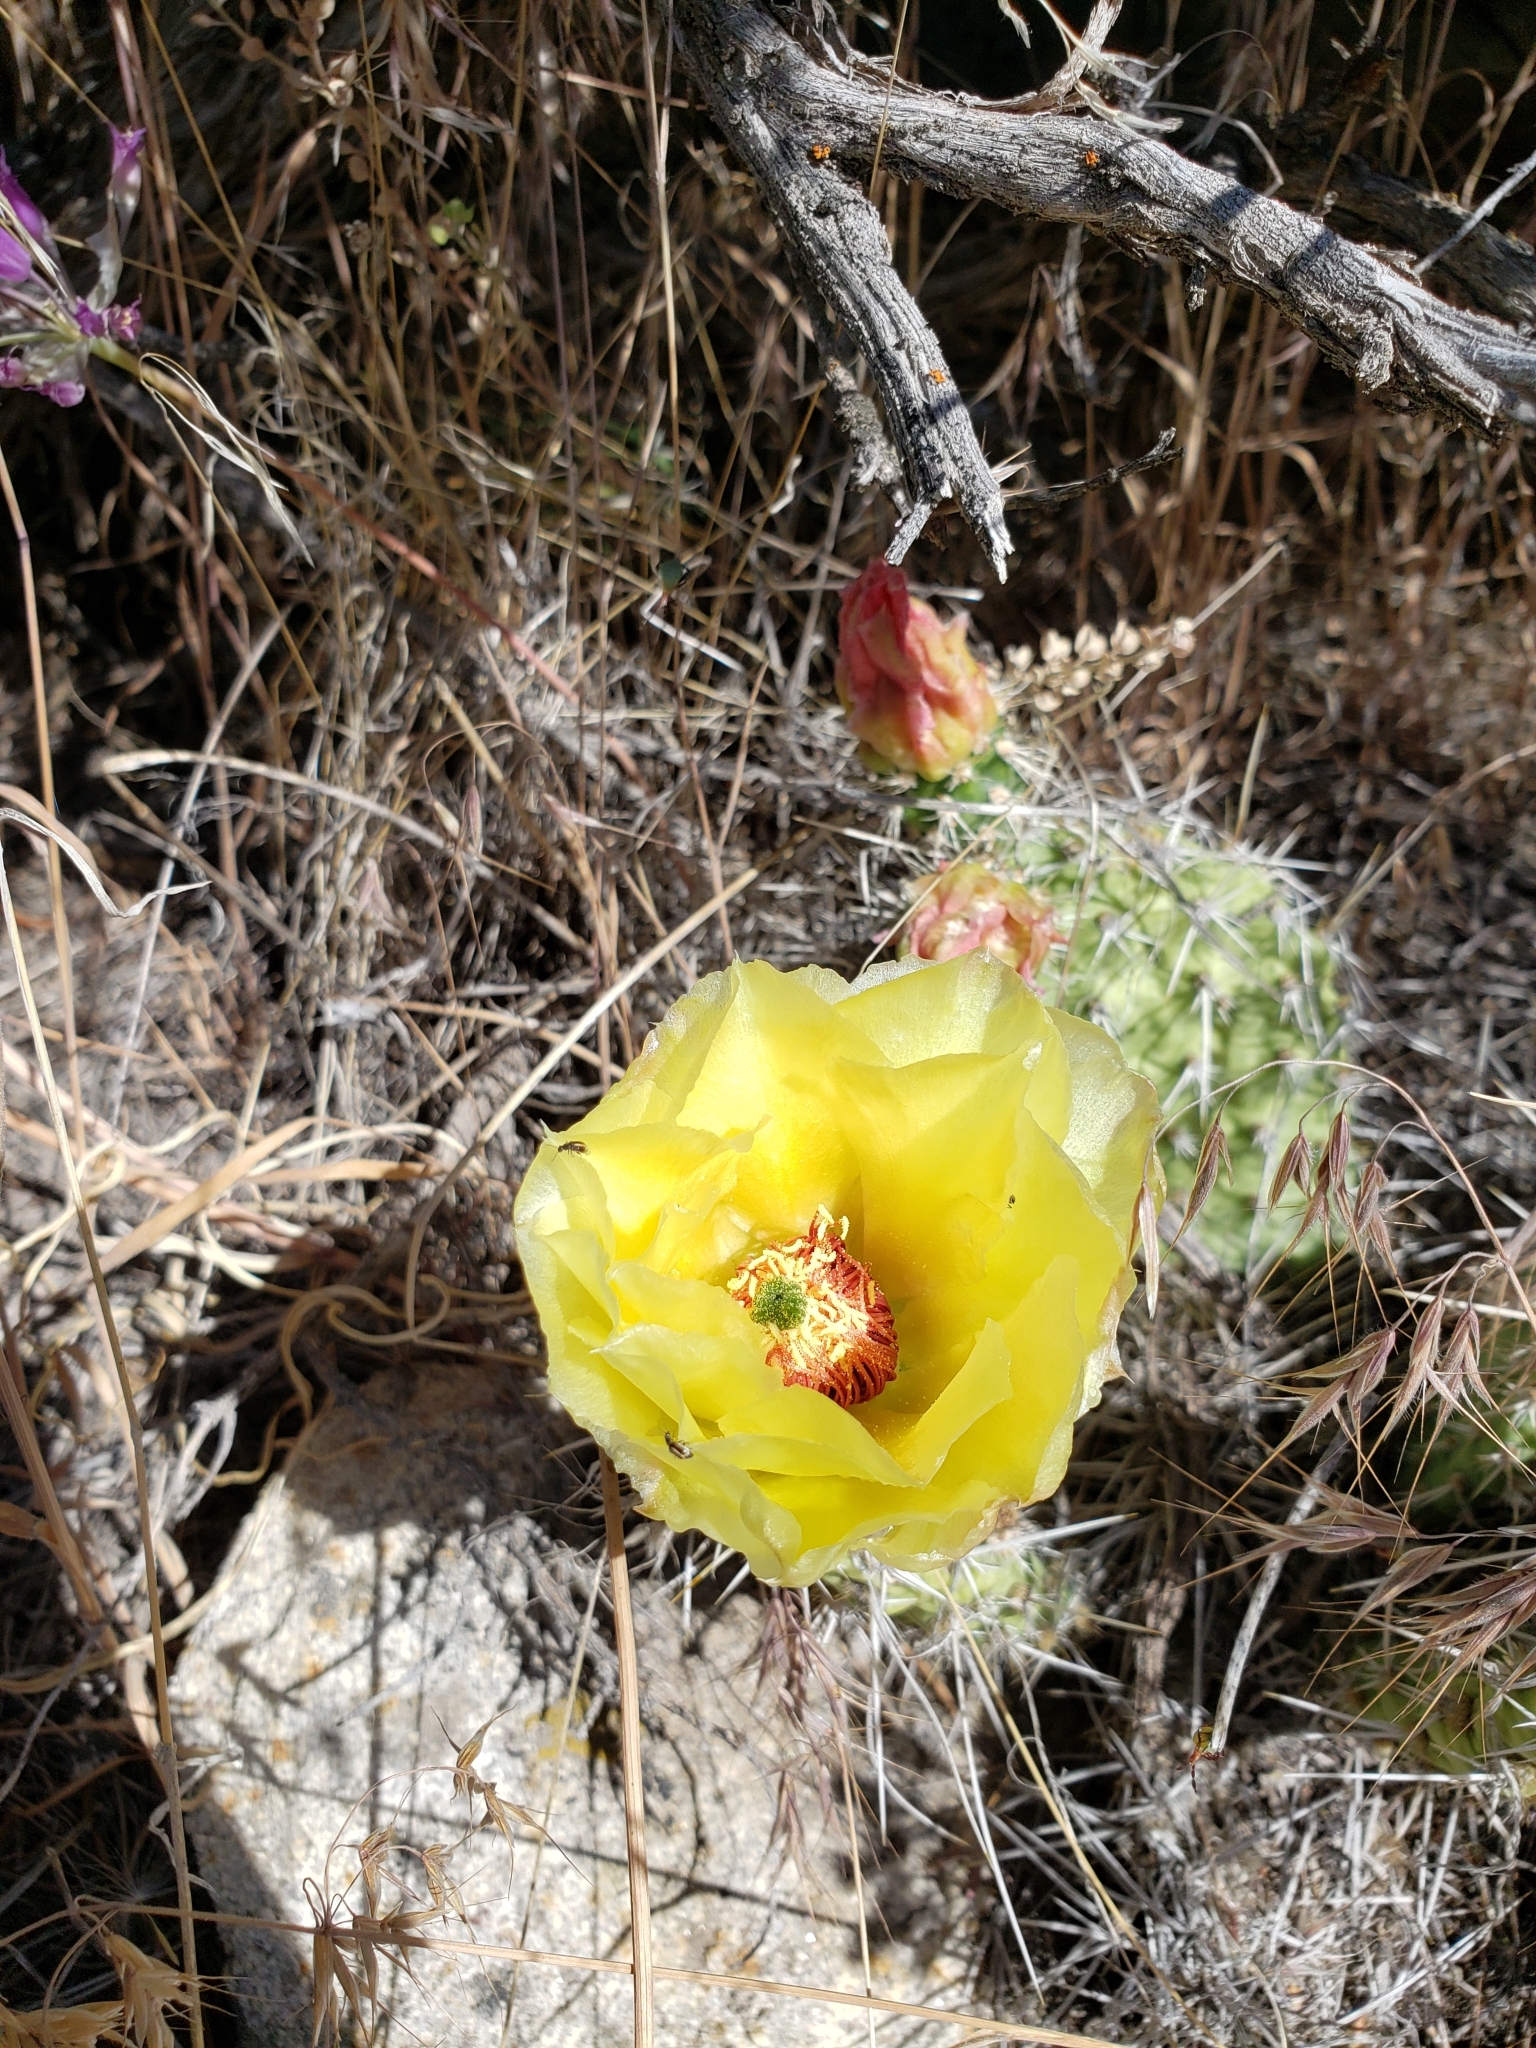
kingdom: Plantae
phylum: Tracheophyta
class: Magnoliopsida
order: Caryophyllales
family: Cactaceae
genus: Opuntia
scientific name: Opuntia polyacantha
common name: Plains prickly-pear
